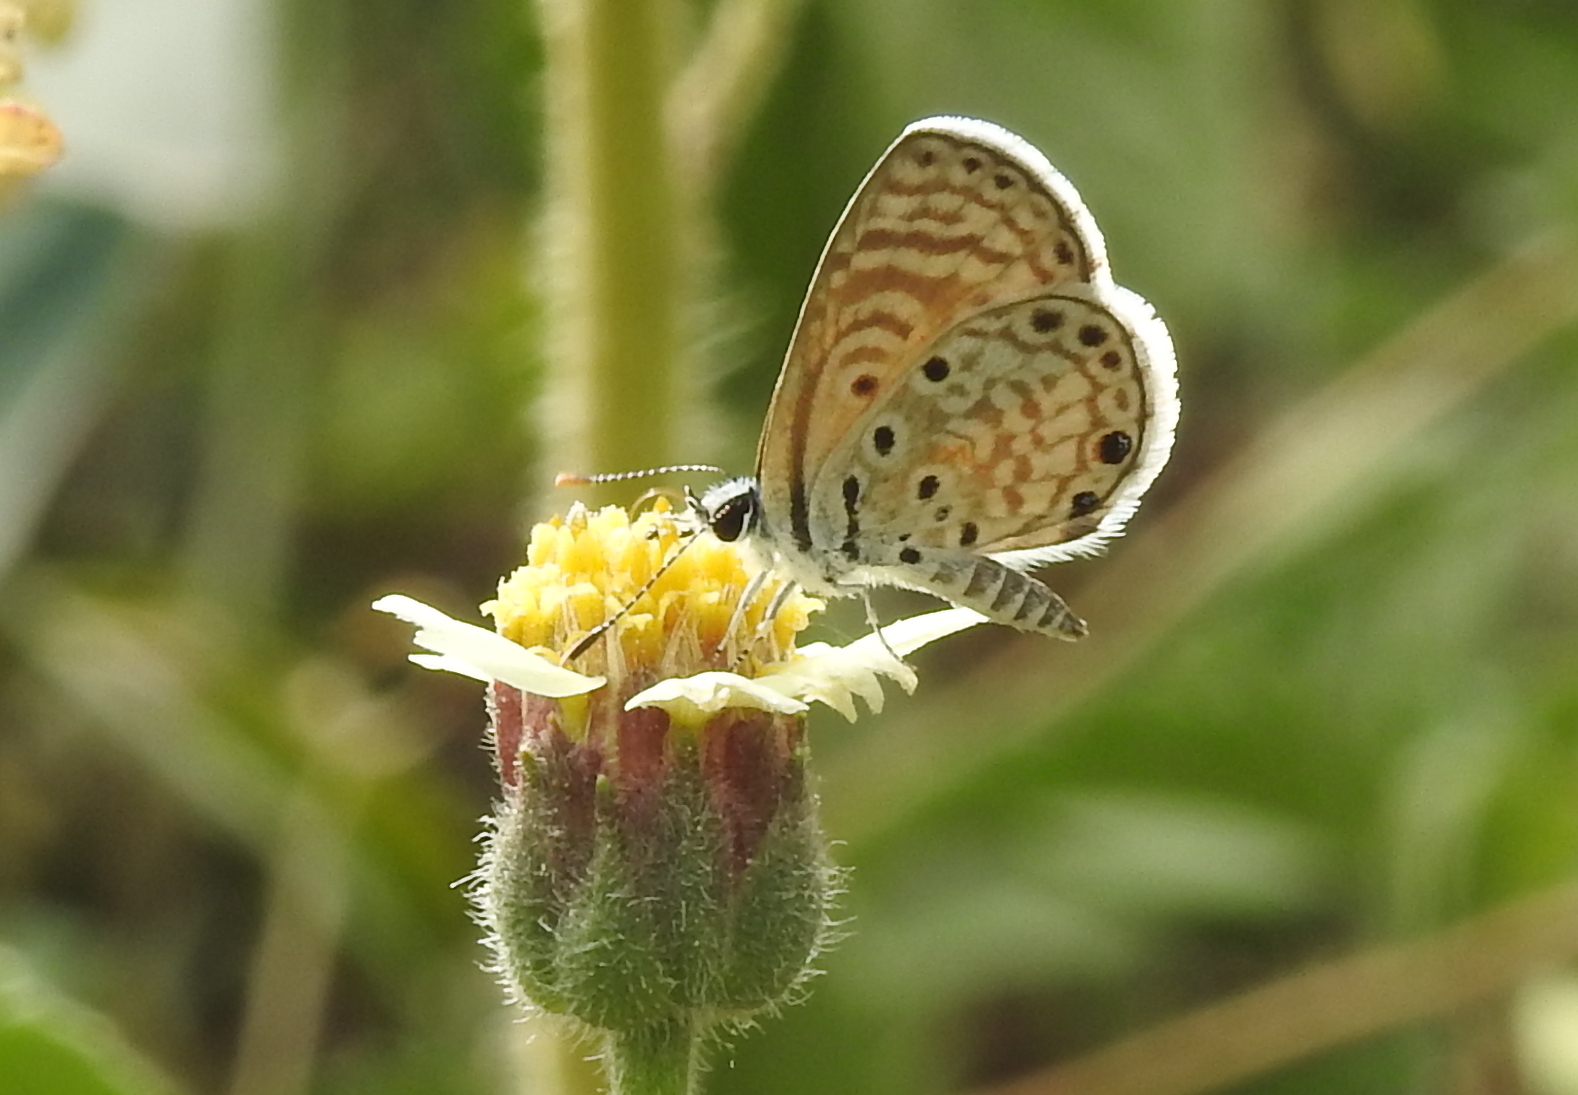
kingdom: Animalia
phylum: Arthropoda
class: Insecta
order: Lepidoptera
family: Lycaenidae
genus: Azanus
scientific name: Azanus jesous
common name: African babul blue
